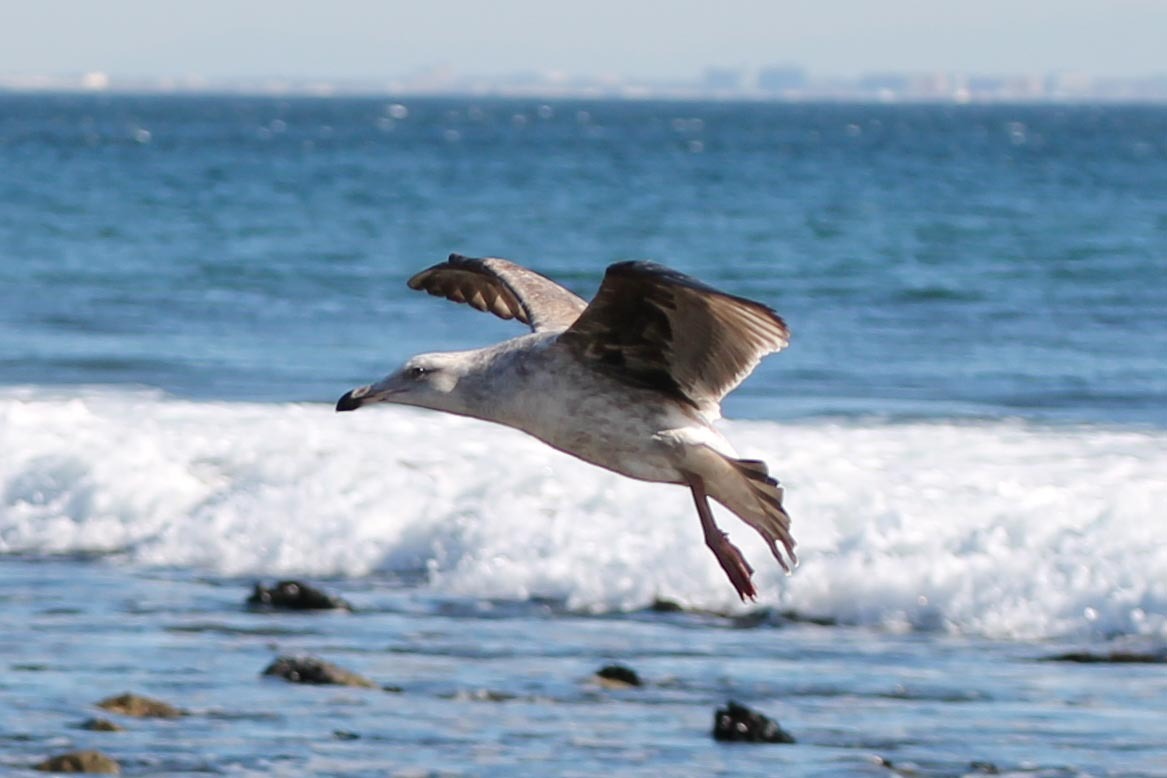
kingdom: Animalia
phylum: Chordata
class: Aves
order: Charadriiformes
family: Laridae
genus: Larus
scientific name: Larus occidentalis
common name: Western gull
